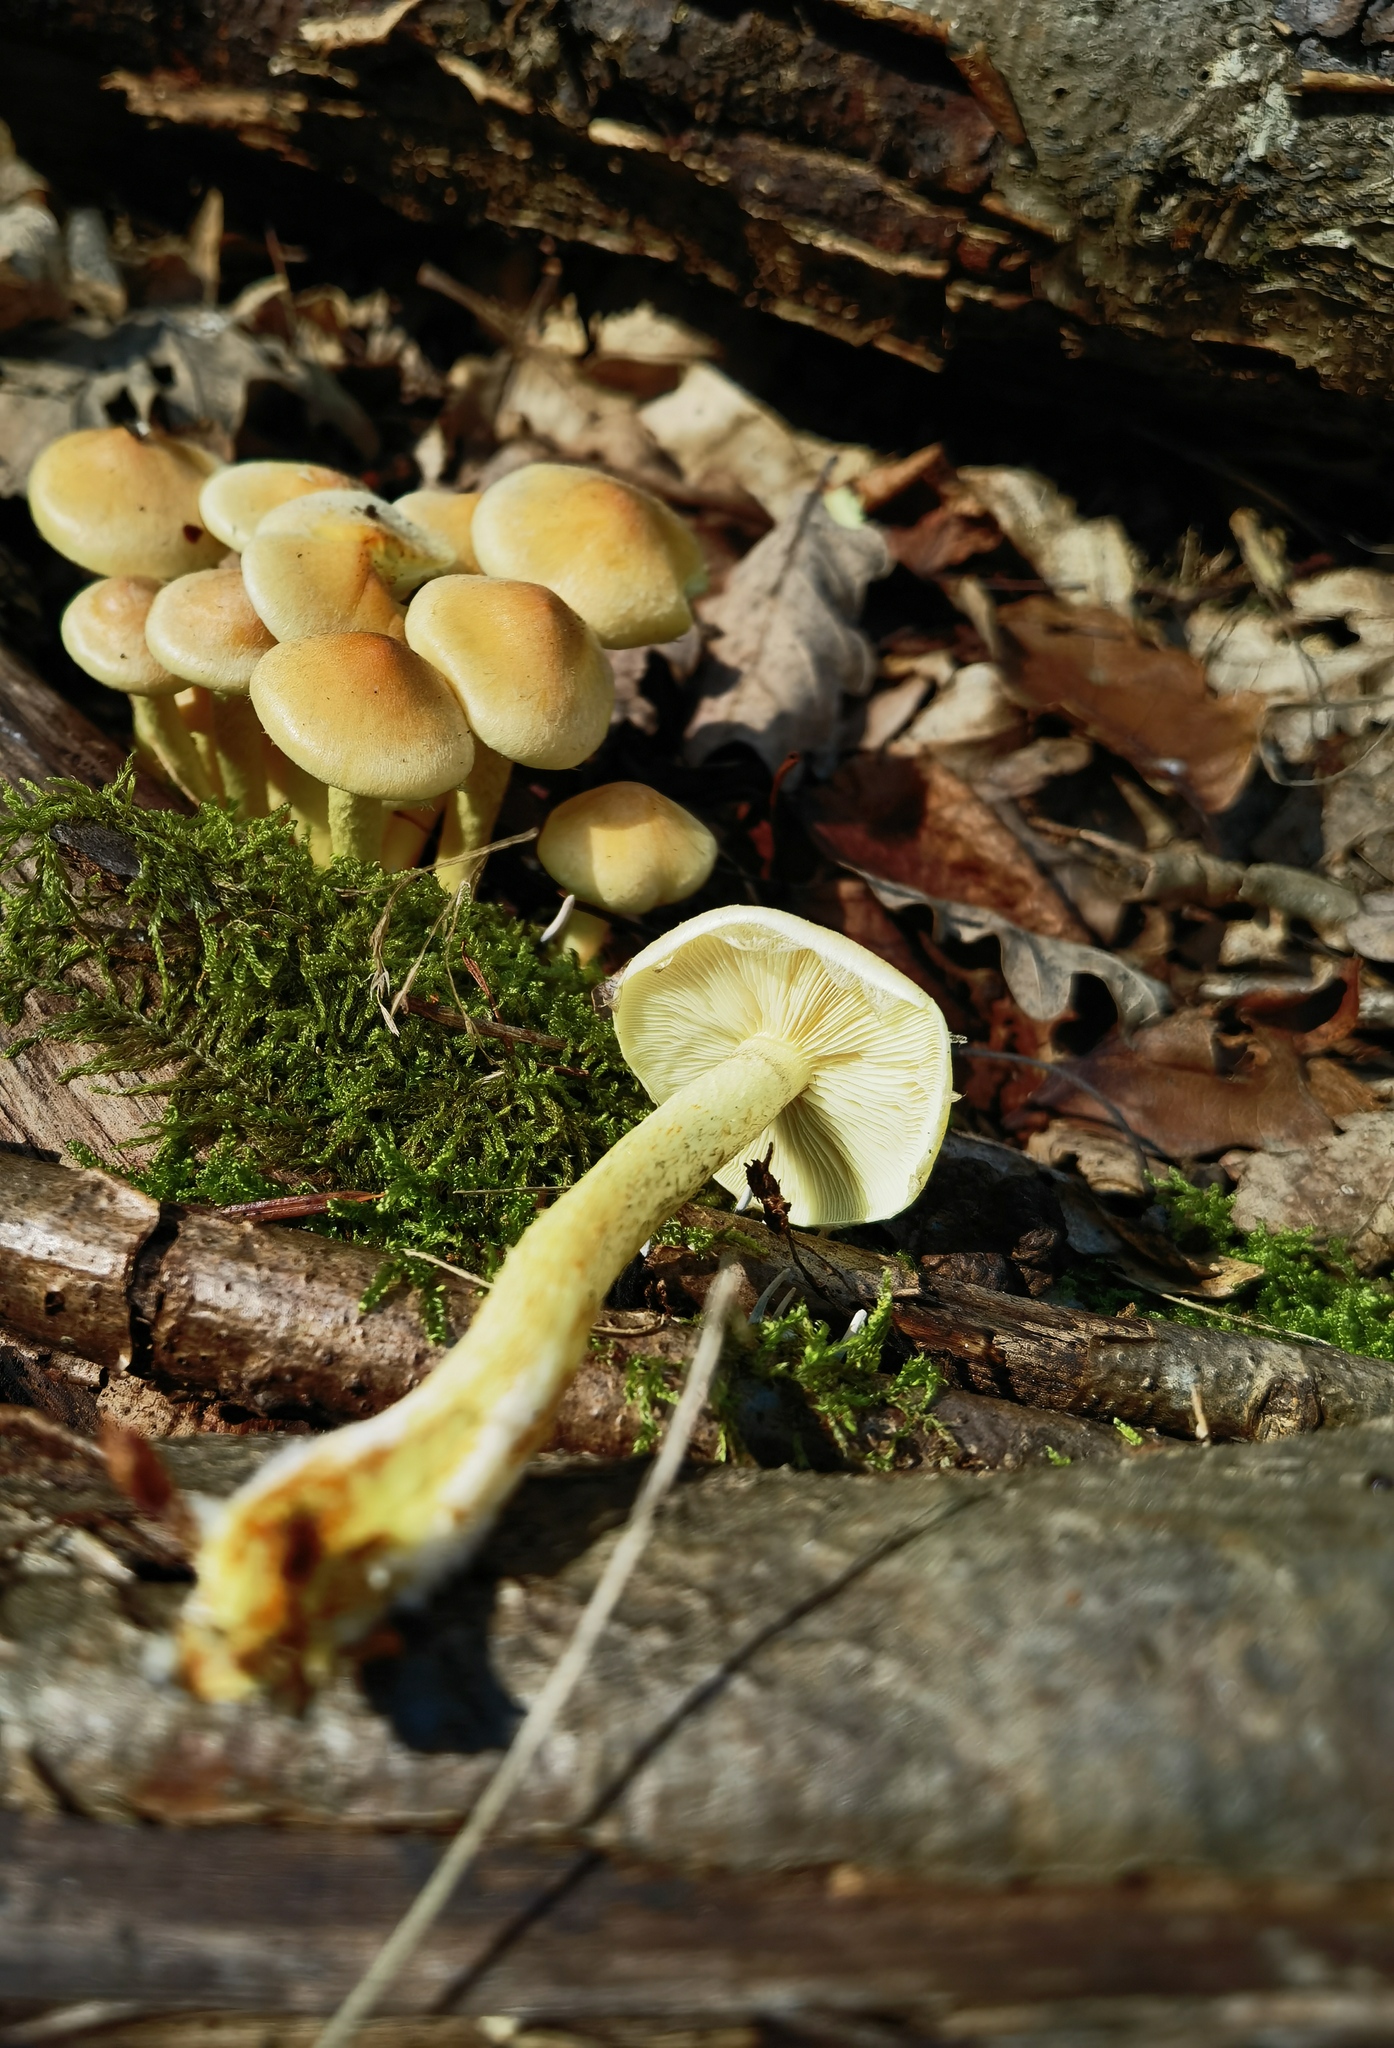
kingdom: Fungi
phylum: Basidiomycota
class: Agaricomycetes
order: Agaricales
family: Strophariaceae
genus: Hypholoma
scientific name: Hypholoma fasciculare
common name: Sulphur tuft
